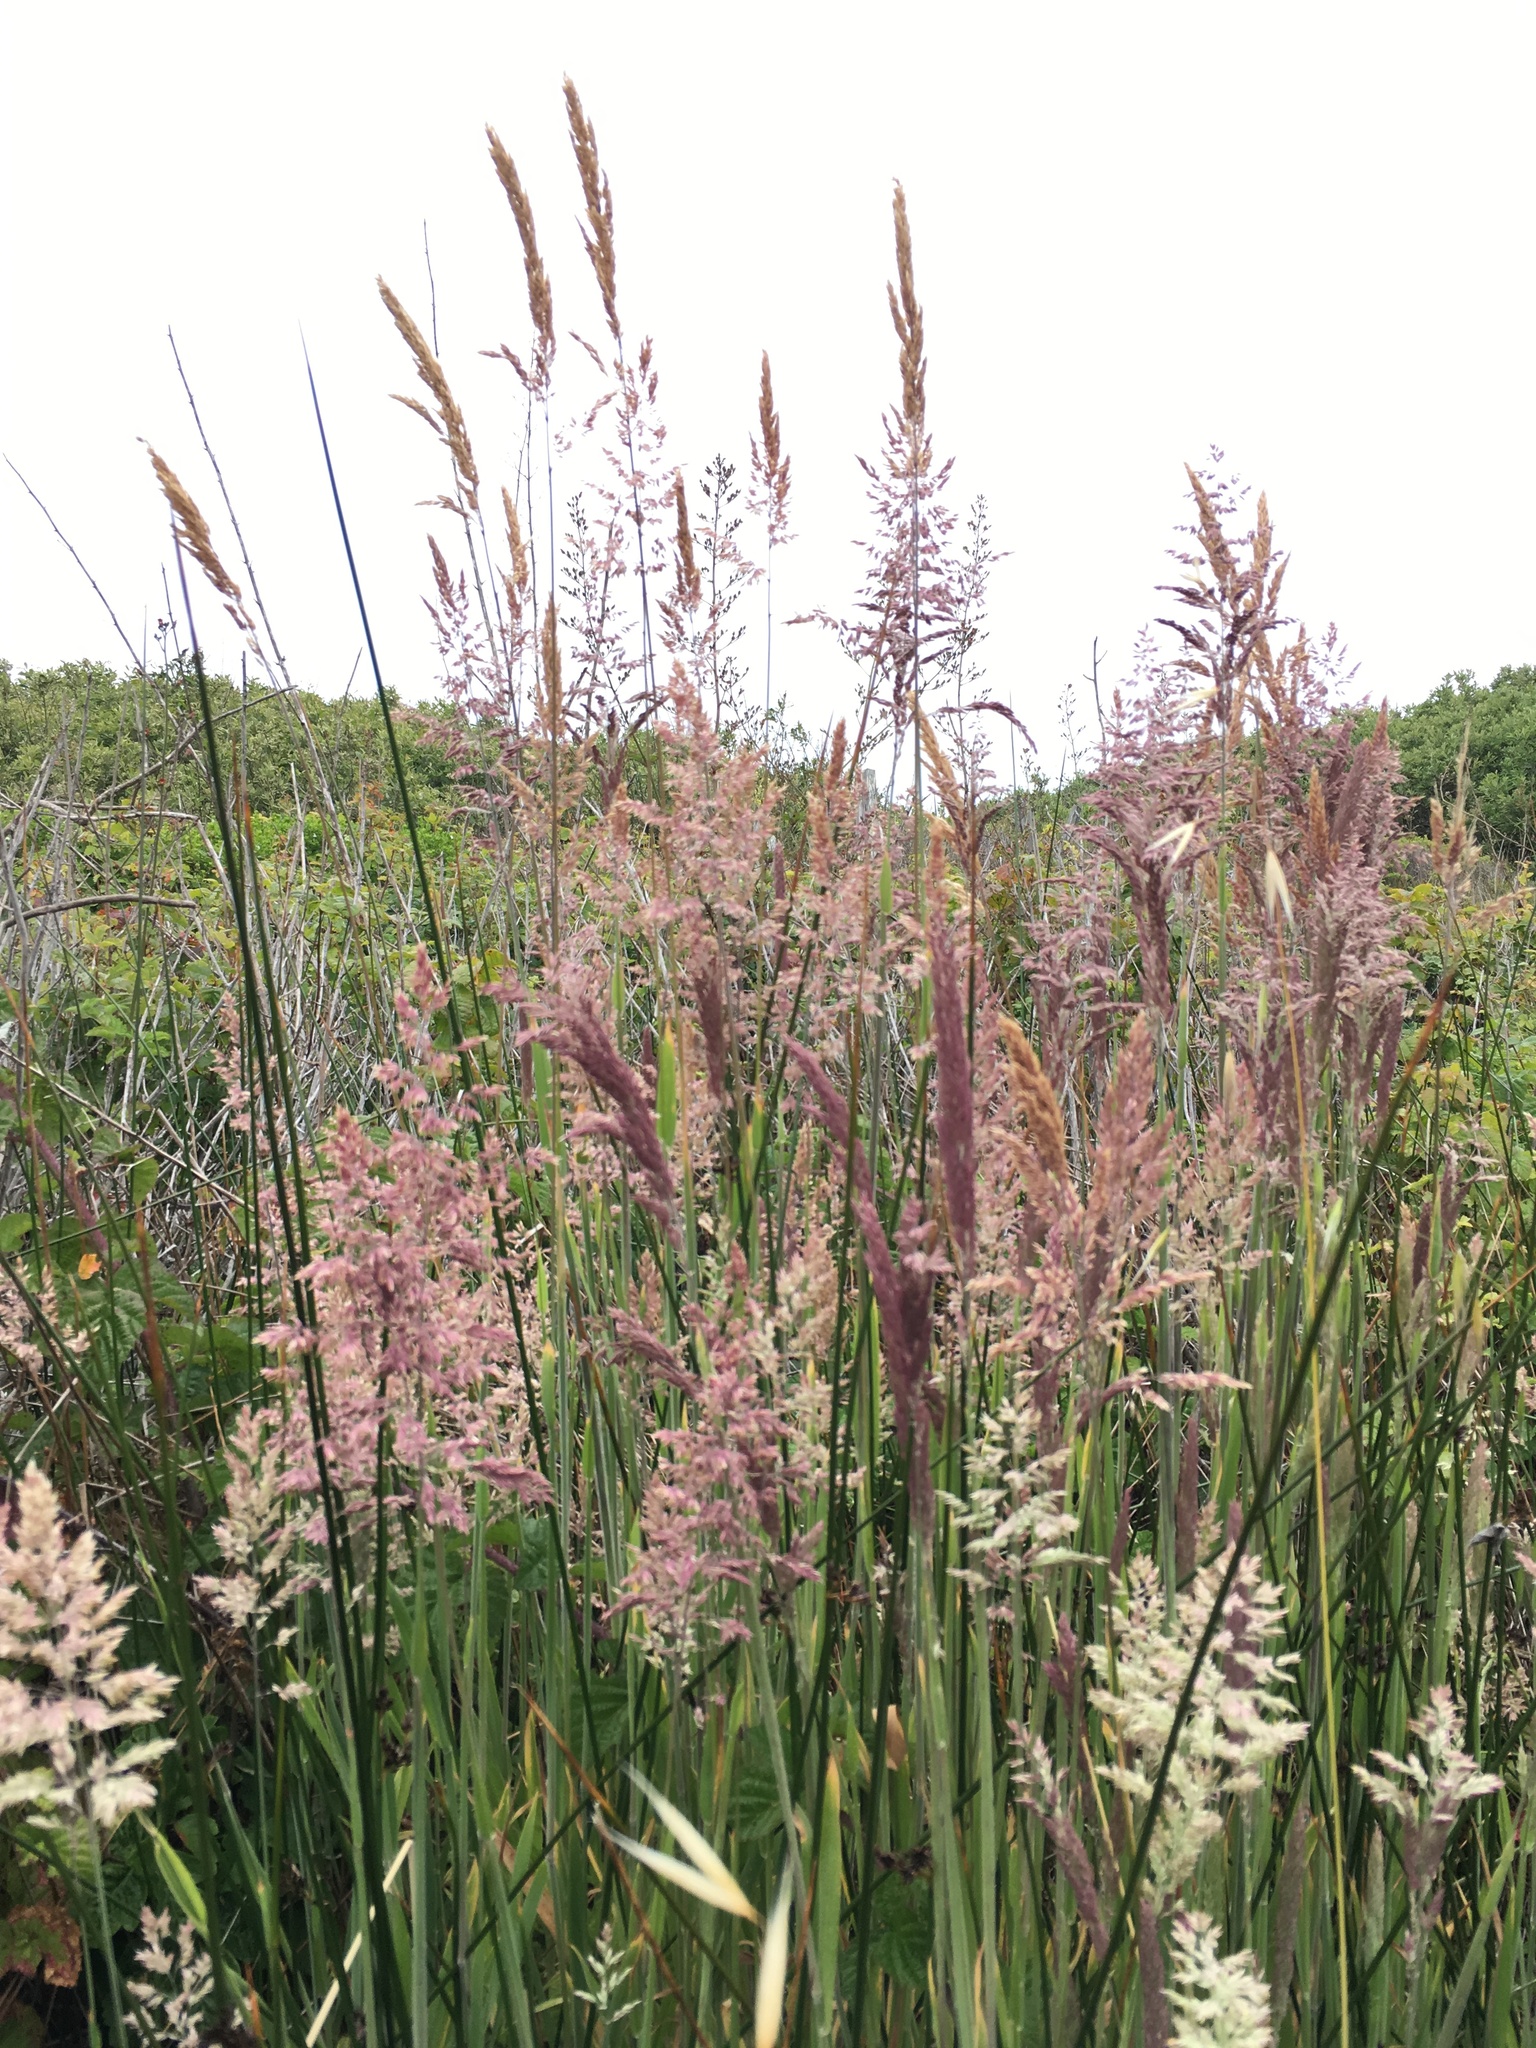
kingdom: Plantae
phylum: Tracheophyta
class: Liliopsida
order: Poales
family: Poaceae
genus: Holcus
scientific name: Holcus lanatus
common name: Yorkshire-fog
